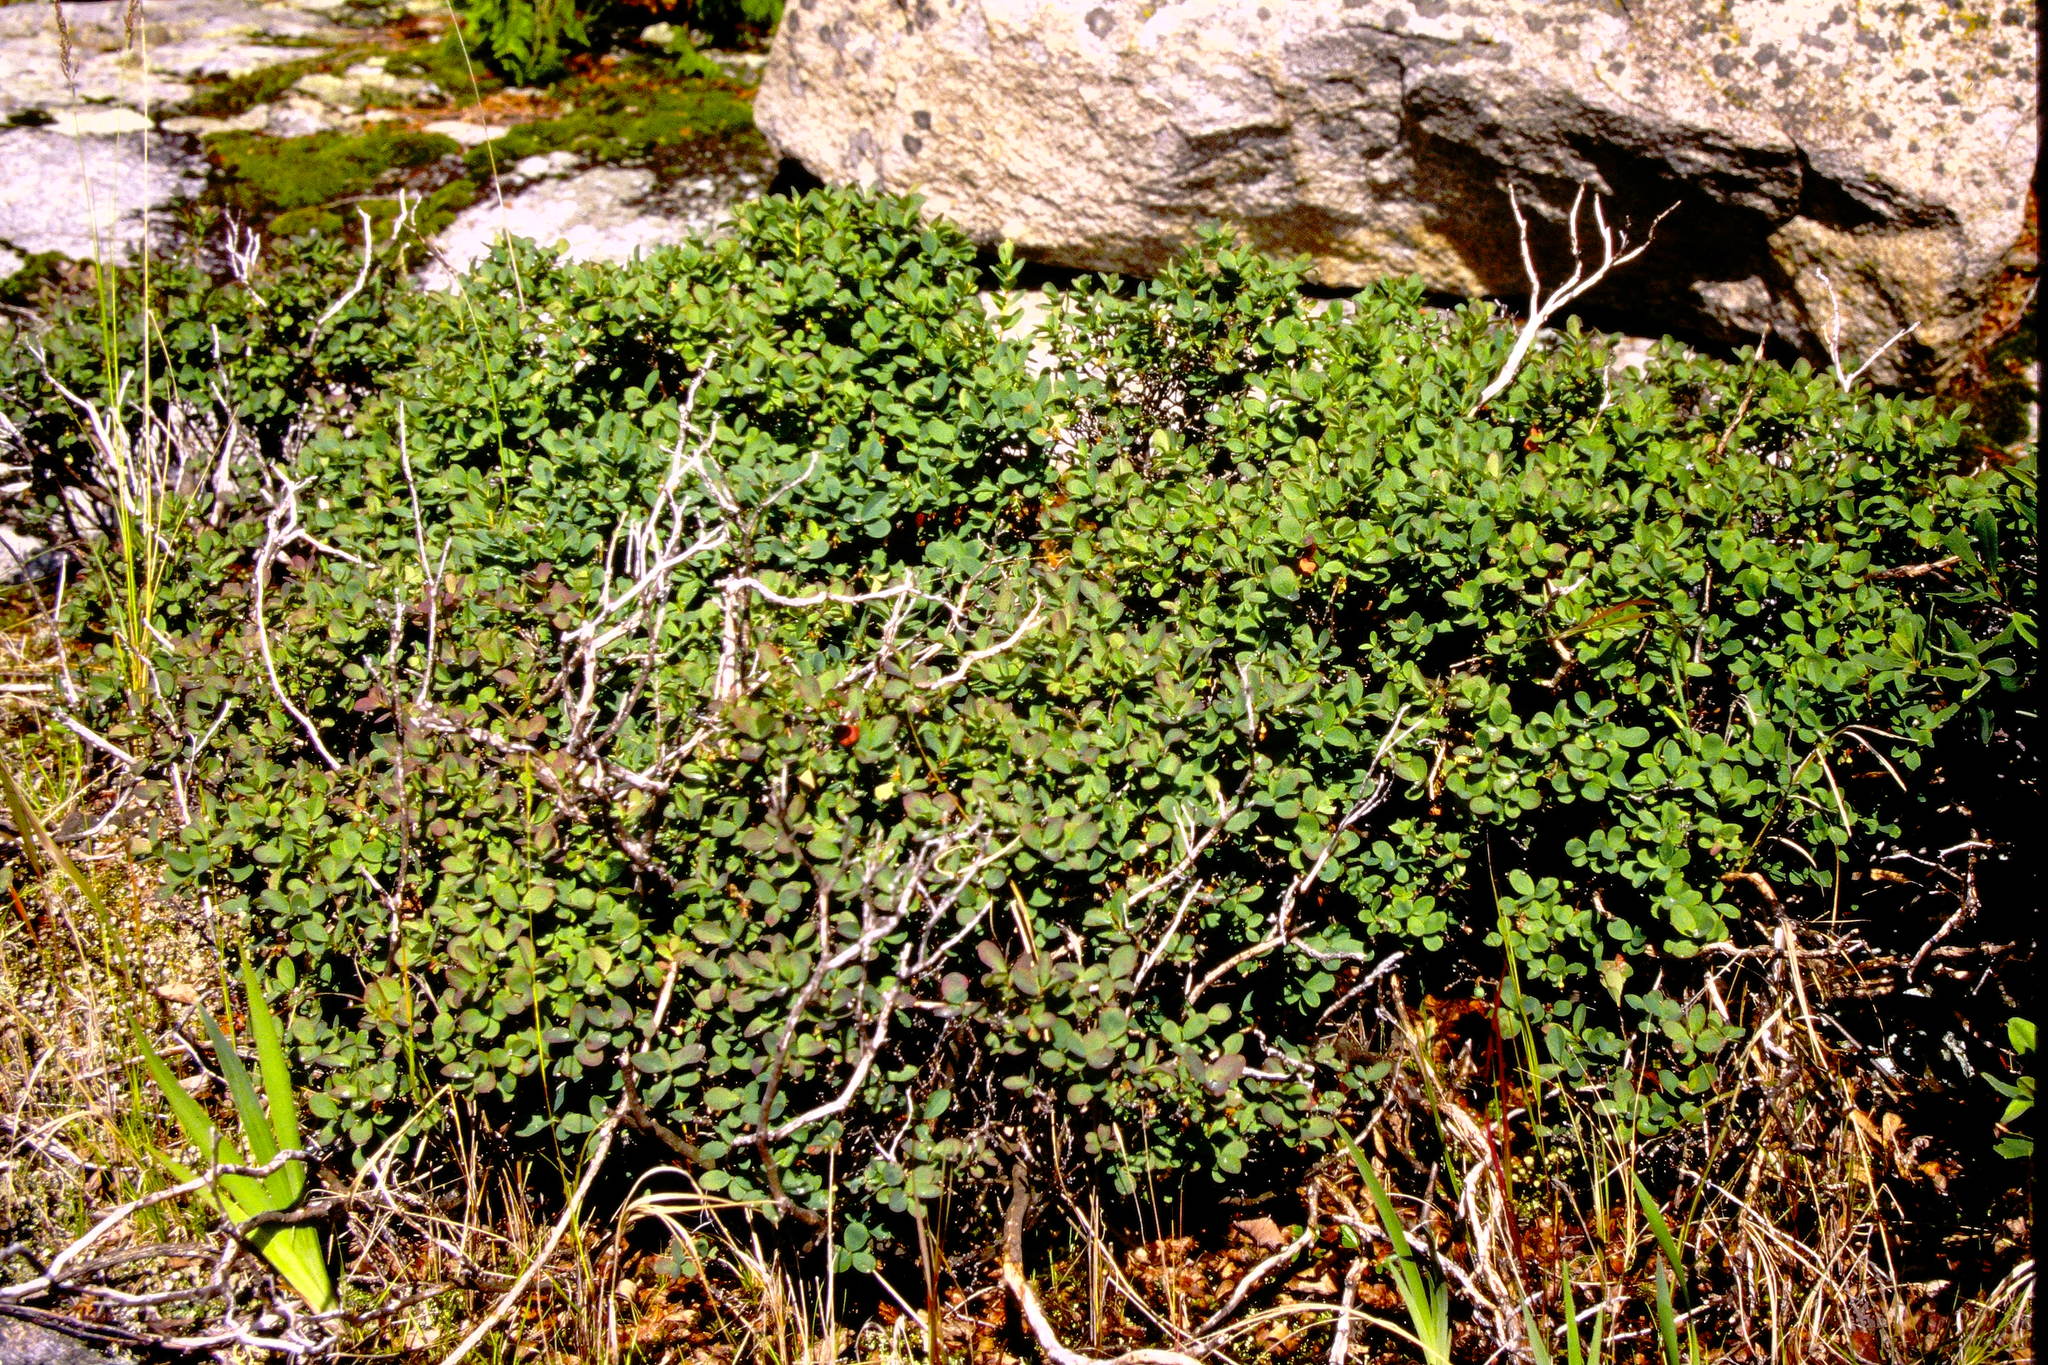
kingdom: Plantae
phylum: Tracheophyta
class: Magnoliopsida
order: Ericales
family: Ericaceae
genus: Vaccinium
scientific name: Vaccinium uliginosum
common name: Bog bilberry
